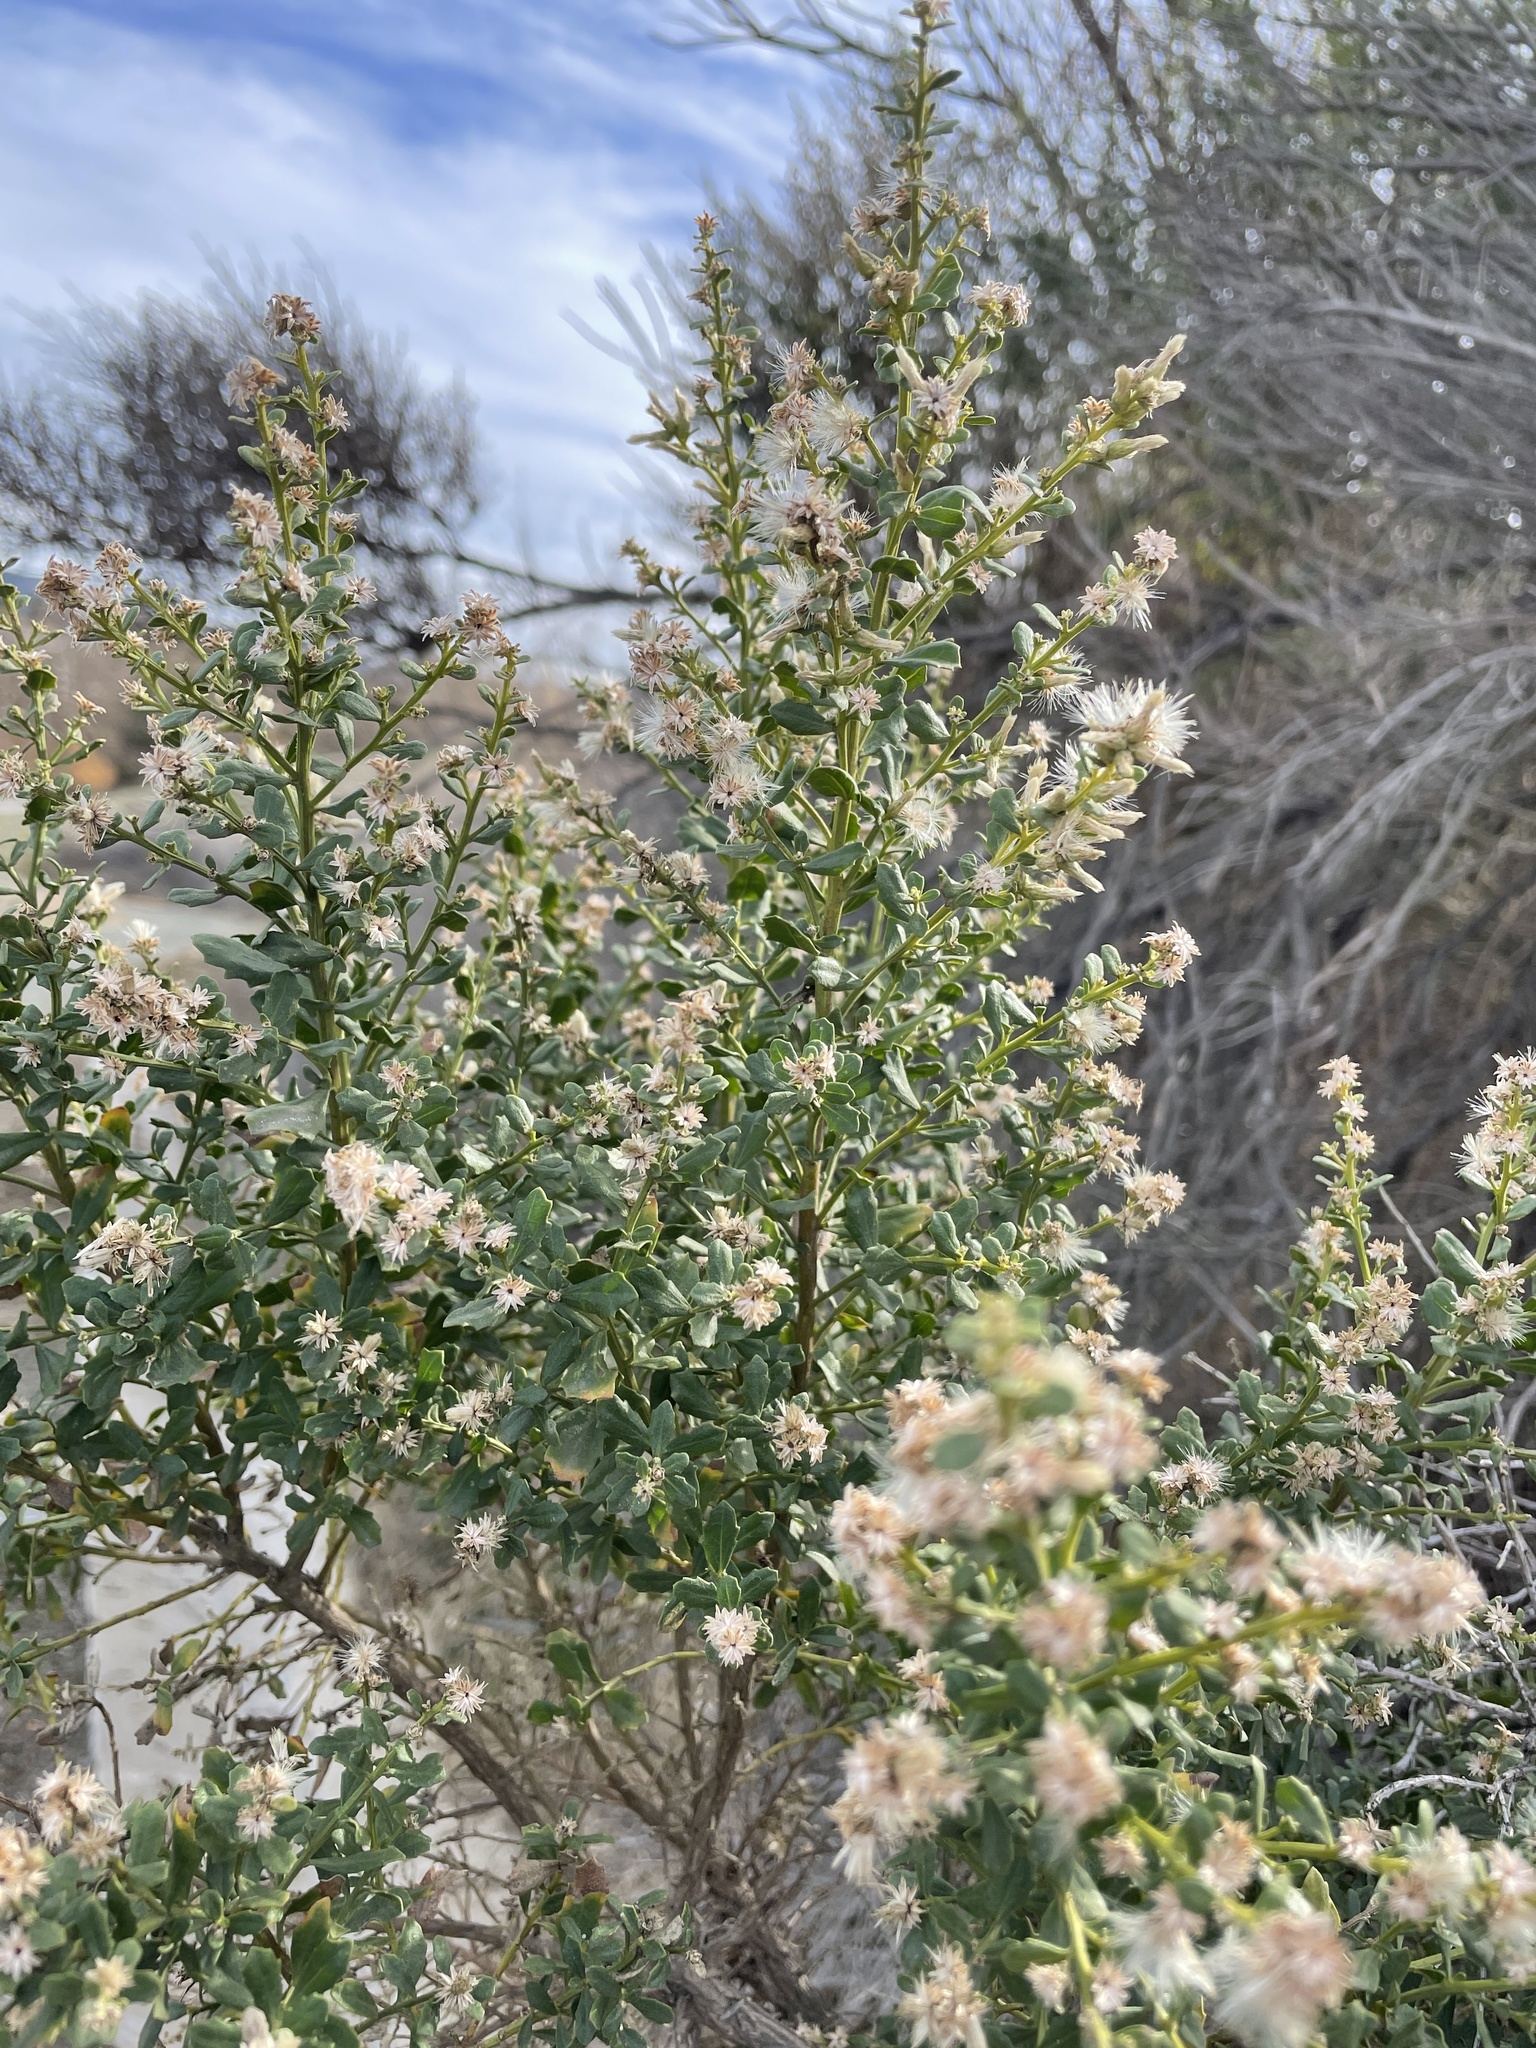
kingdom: Plantae
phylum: Tracheophyta
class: Magnoliopsida
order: Asterales
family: Asteraceae
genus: Baccharis
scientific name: Baccharis pilularis
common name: Coyotebrush
